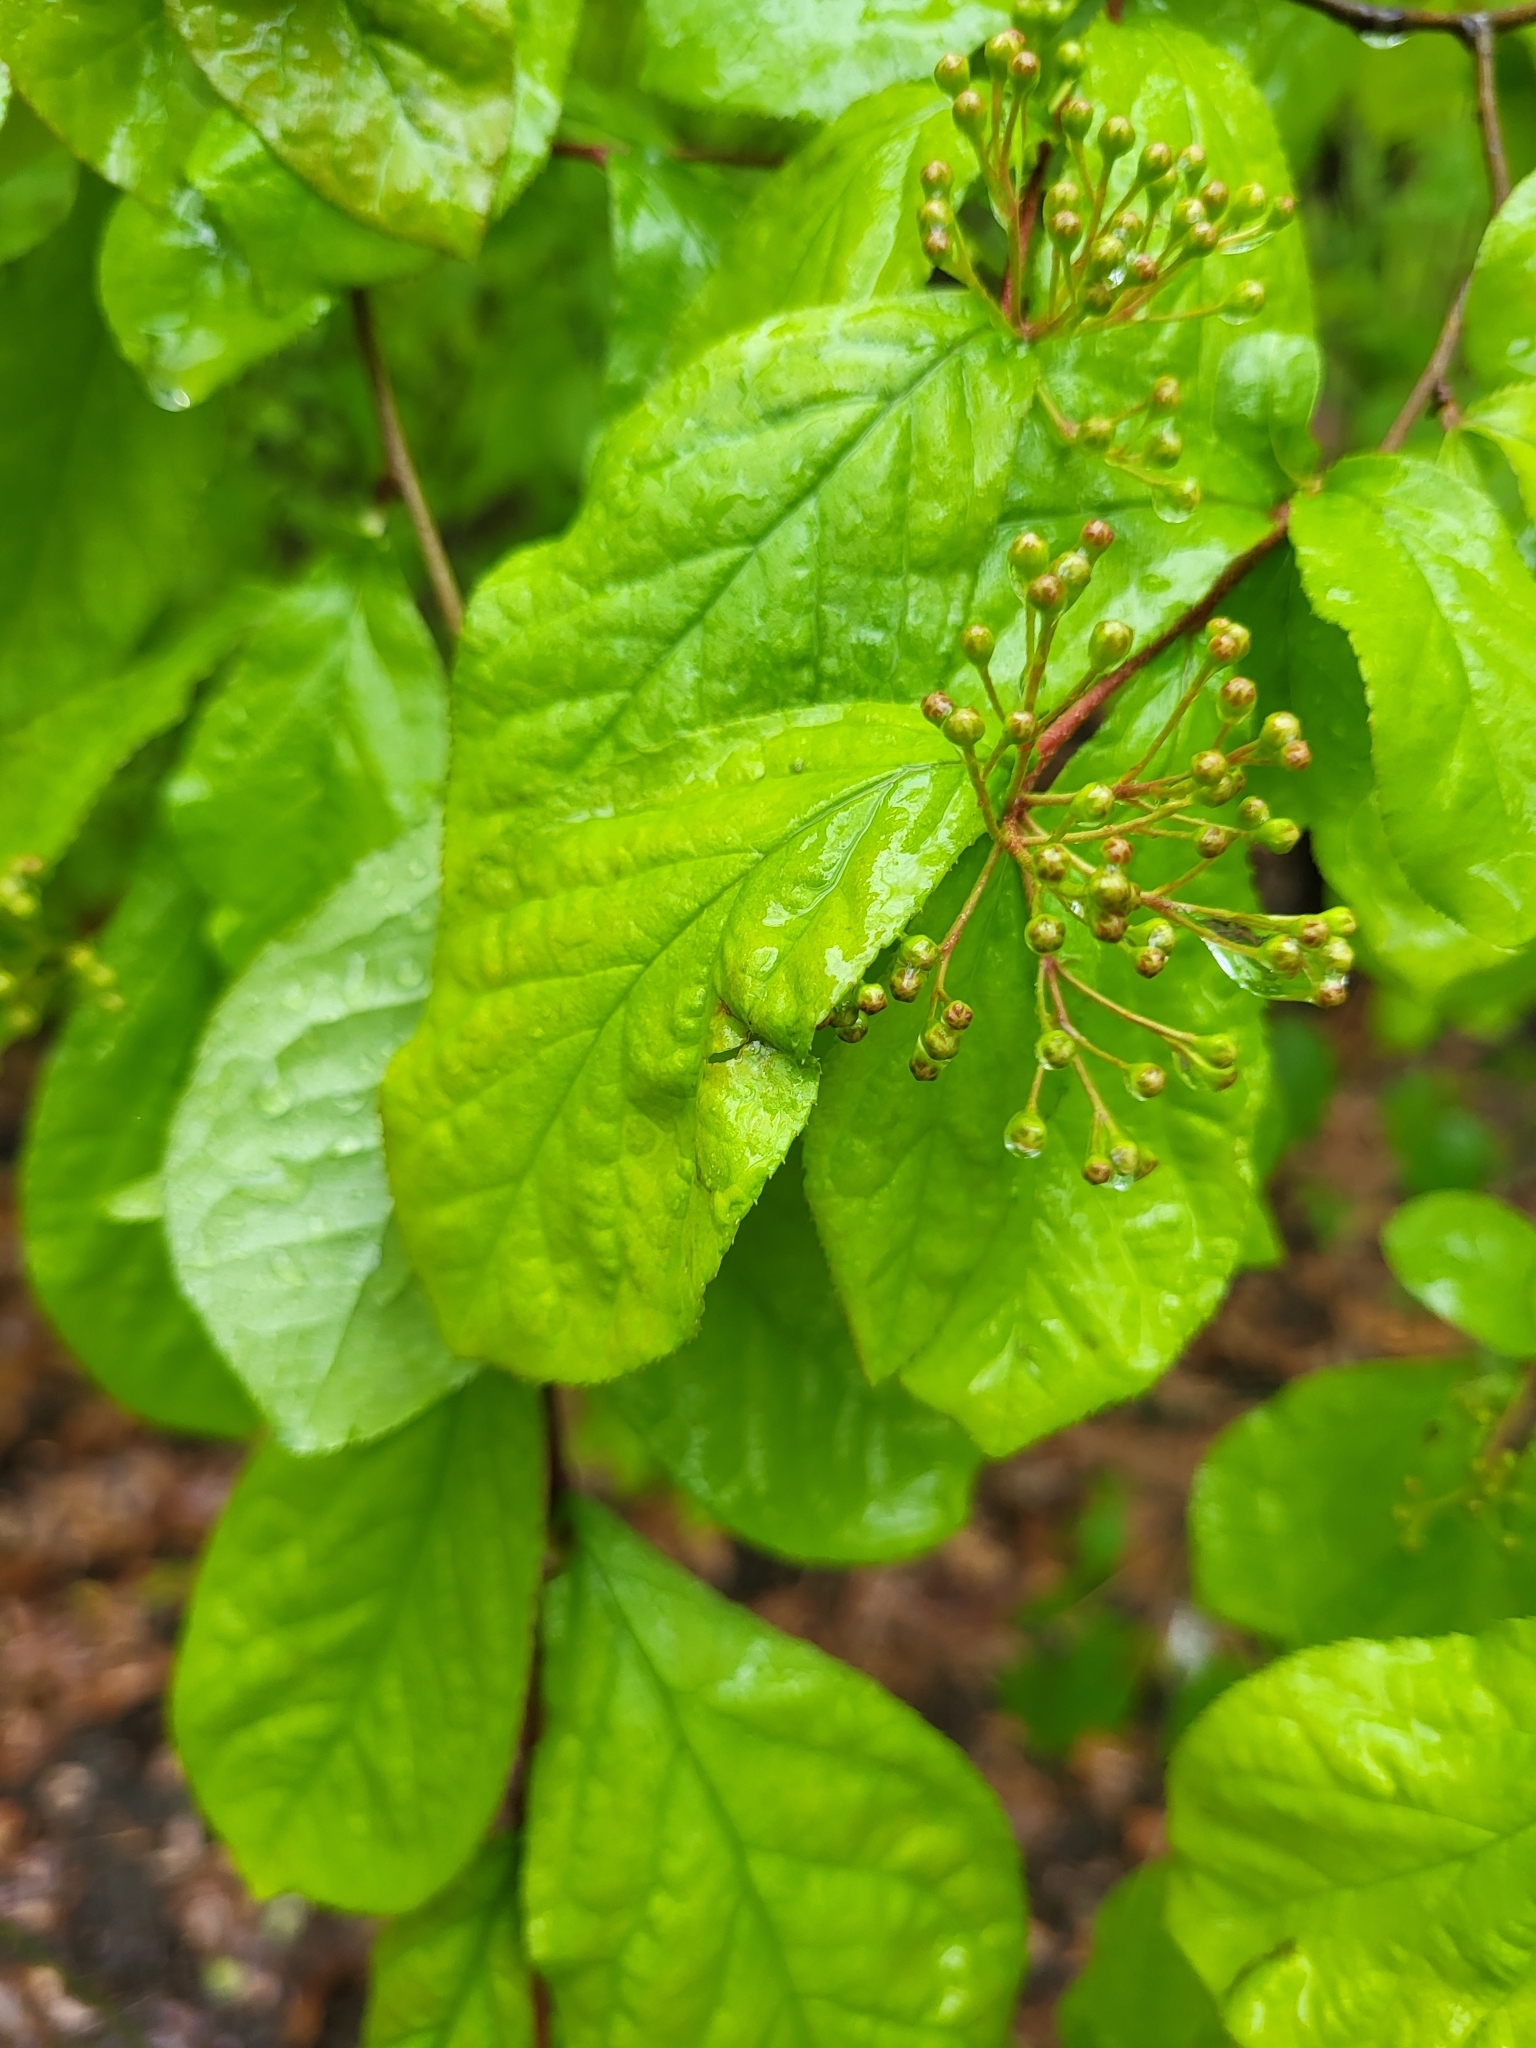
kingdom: Plantae
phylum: Tracheophyta
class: Magnoliopsida
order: Rosales
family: Rosaceae
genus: Pourthiaea
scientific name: Pourthiaea villosa
